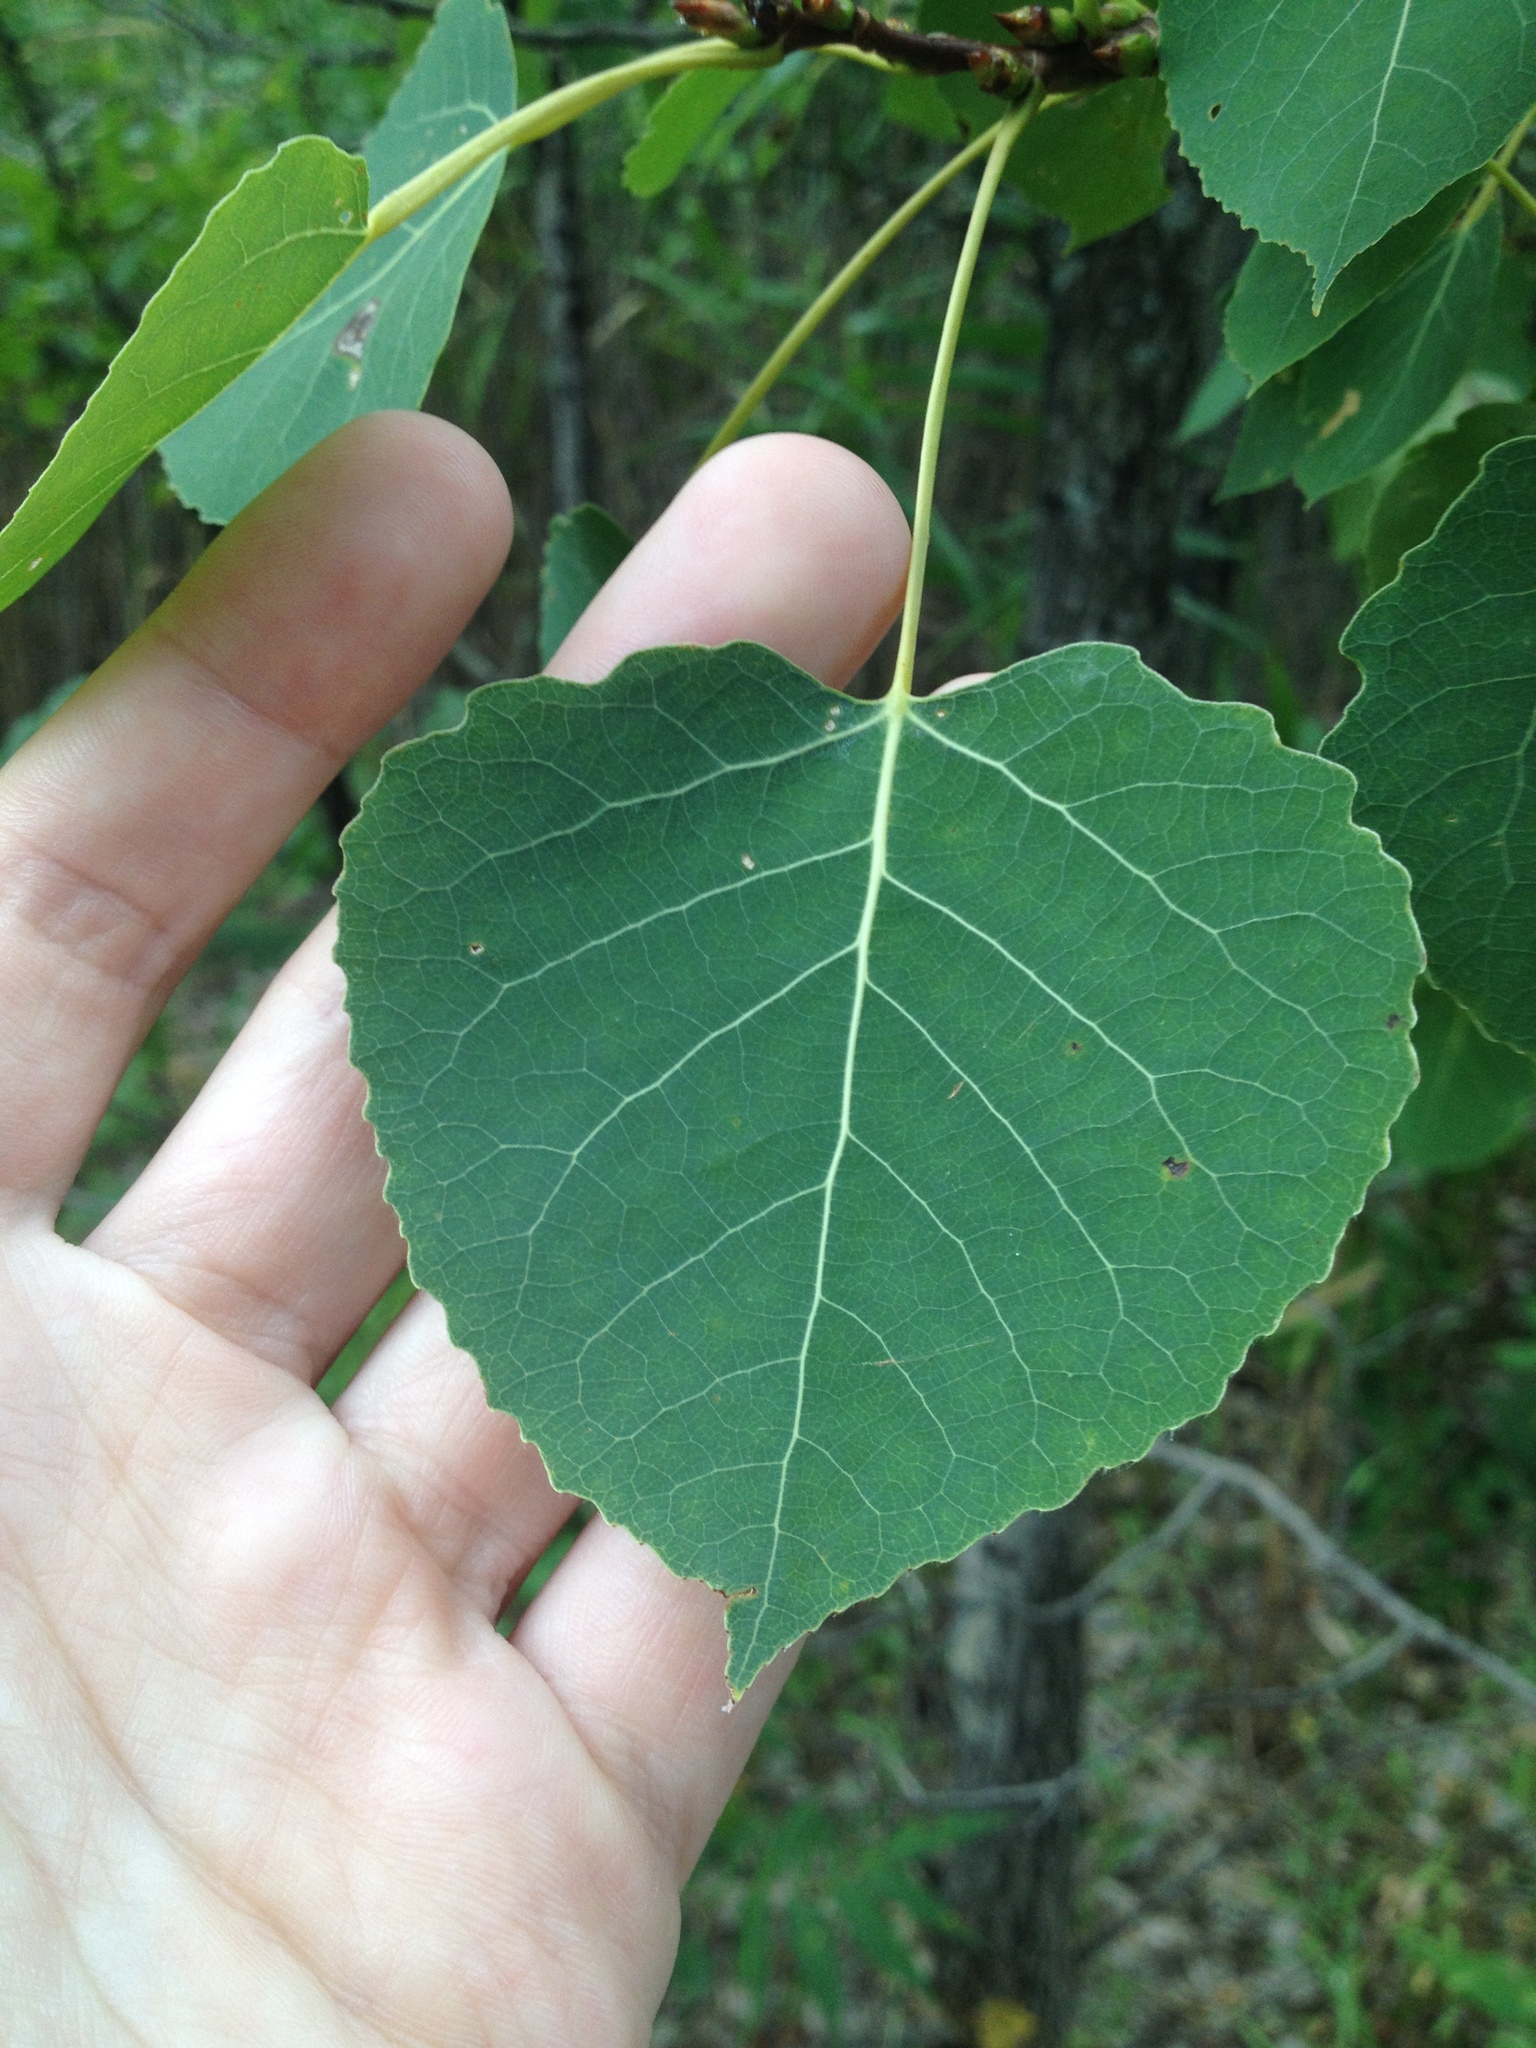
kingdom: Plantae
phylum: Tracheophyta
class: Magnoliopsida
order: Malpighiales
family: Salicaceae
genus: Populus
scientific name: Populus tremuloides
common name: Quaking aspen
